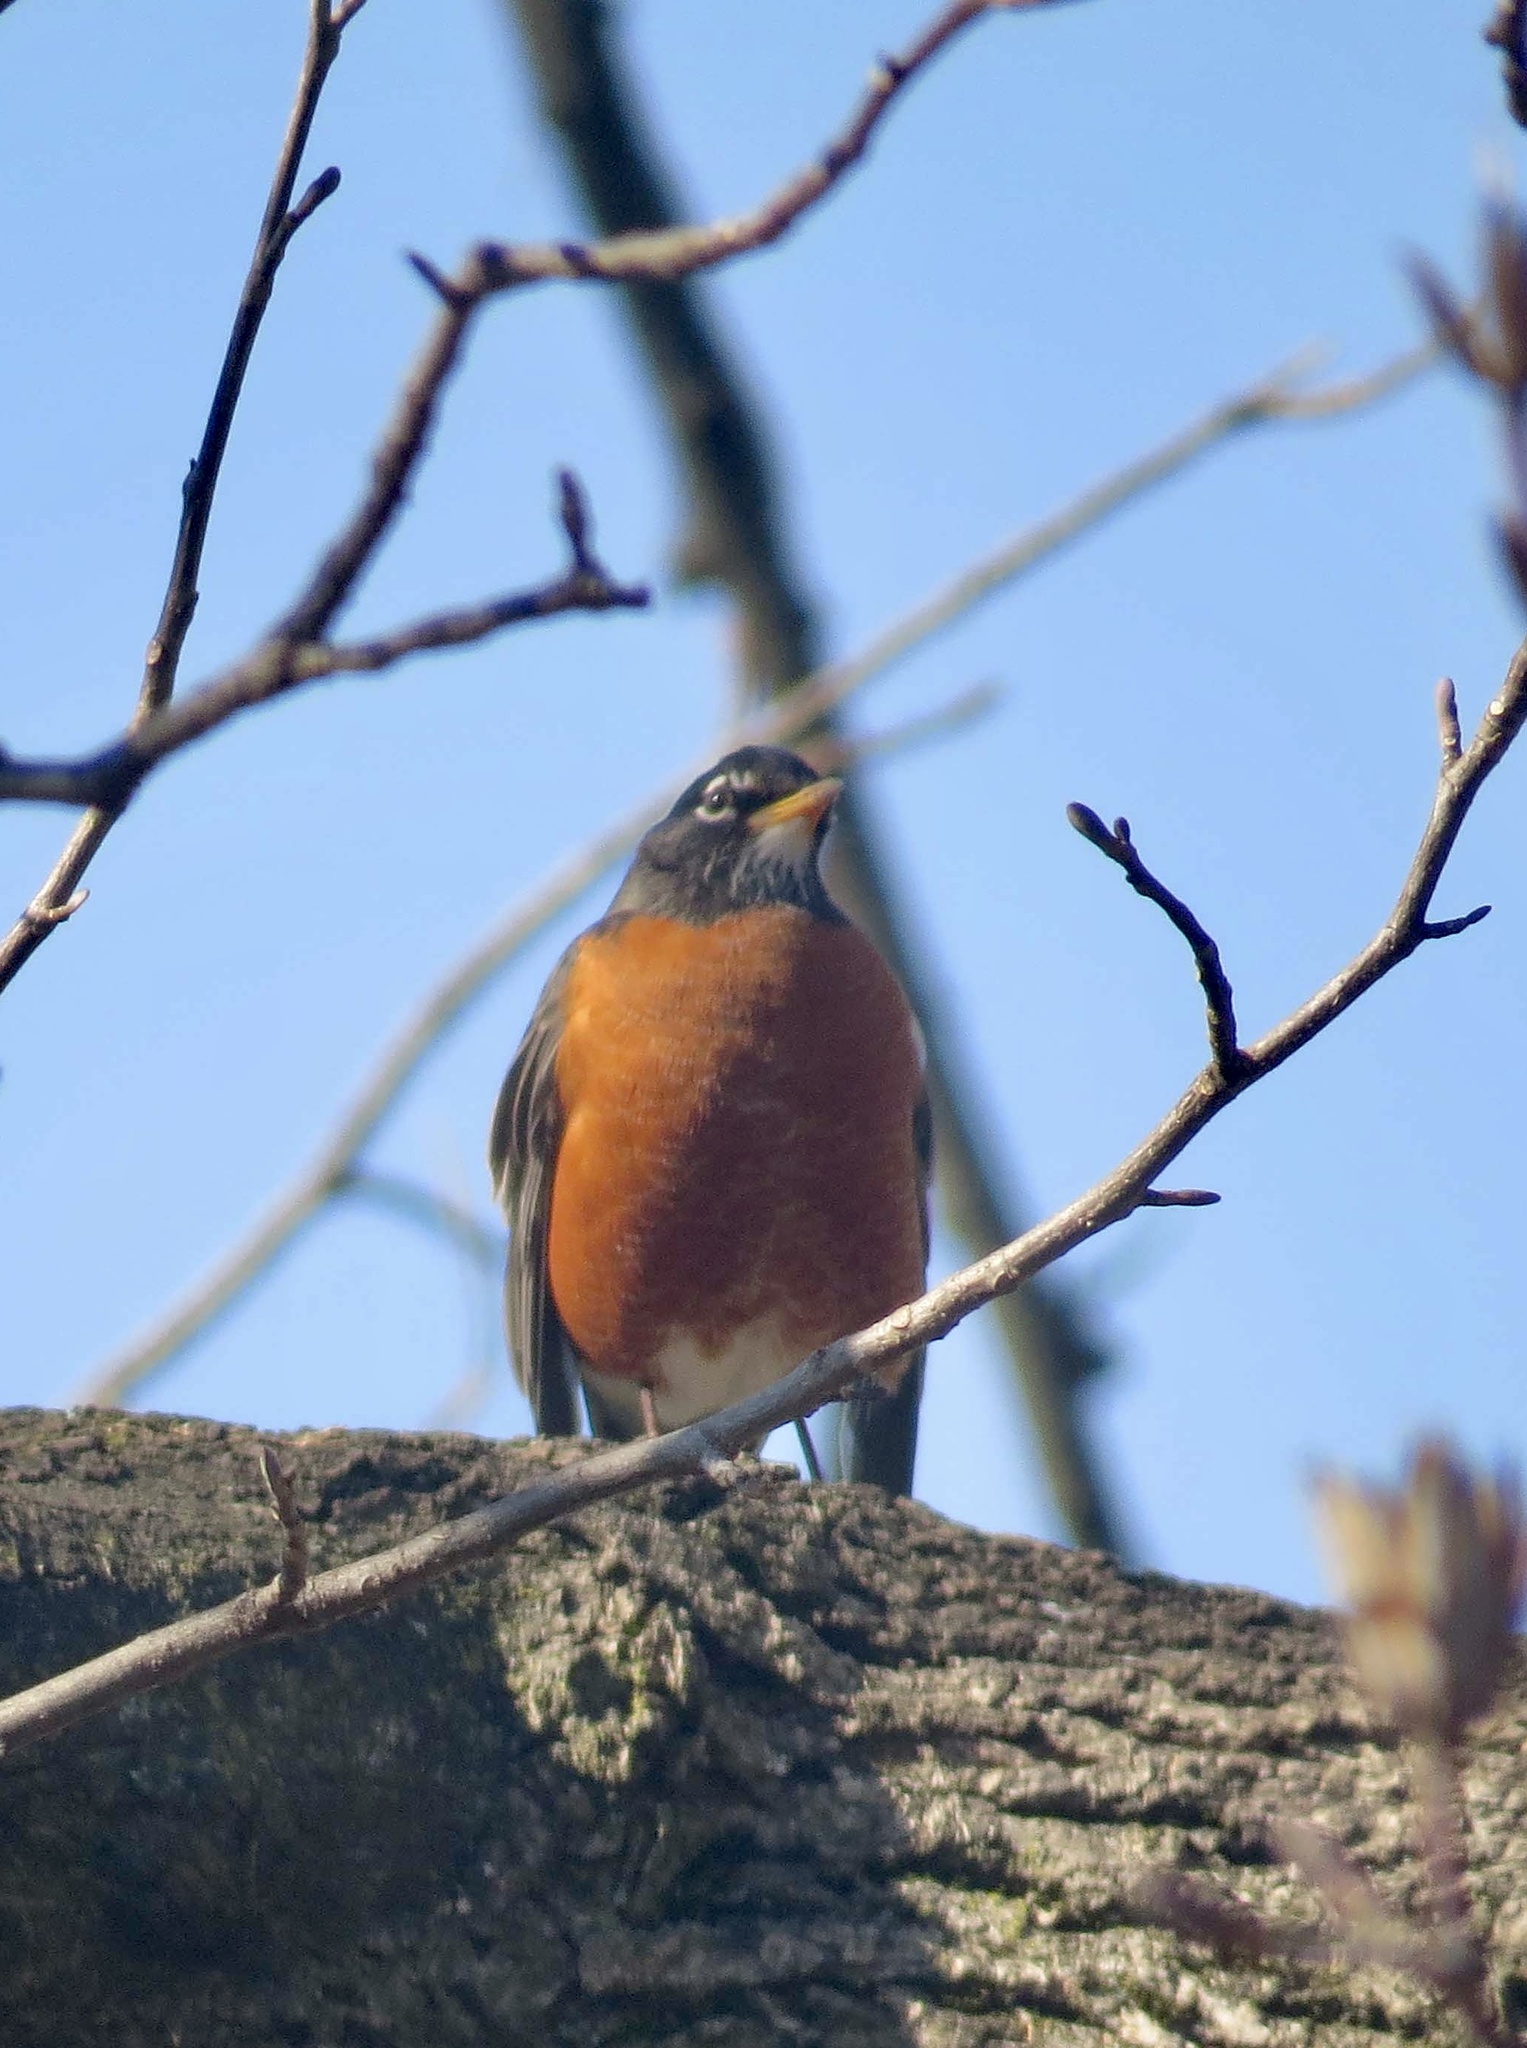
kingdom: Animalia
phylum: Chordata
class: Aves
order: Passeriformes
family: Turdidae
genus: Turdus
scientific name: Turdus migratorius
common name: American robin
